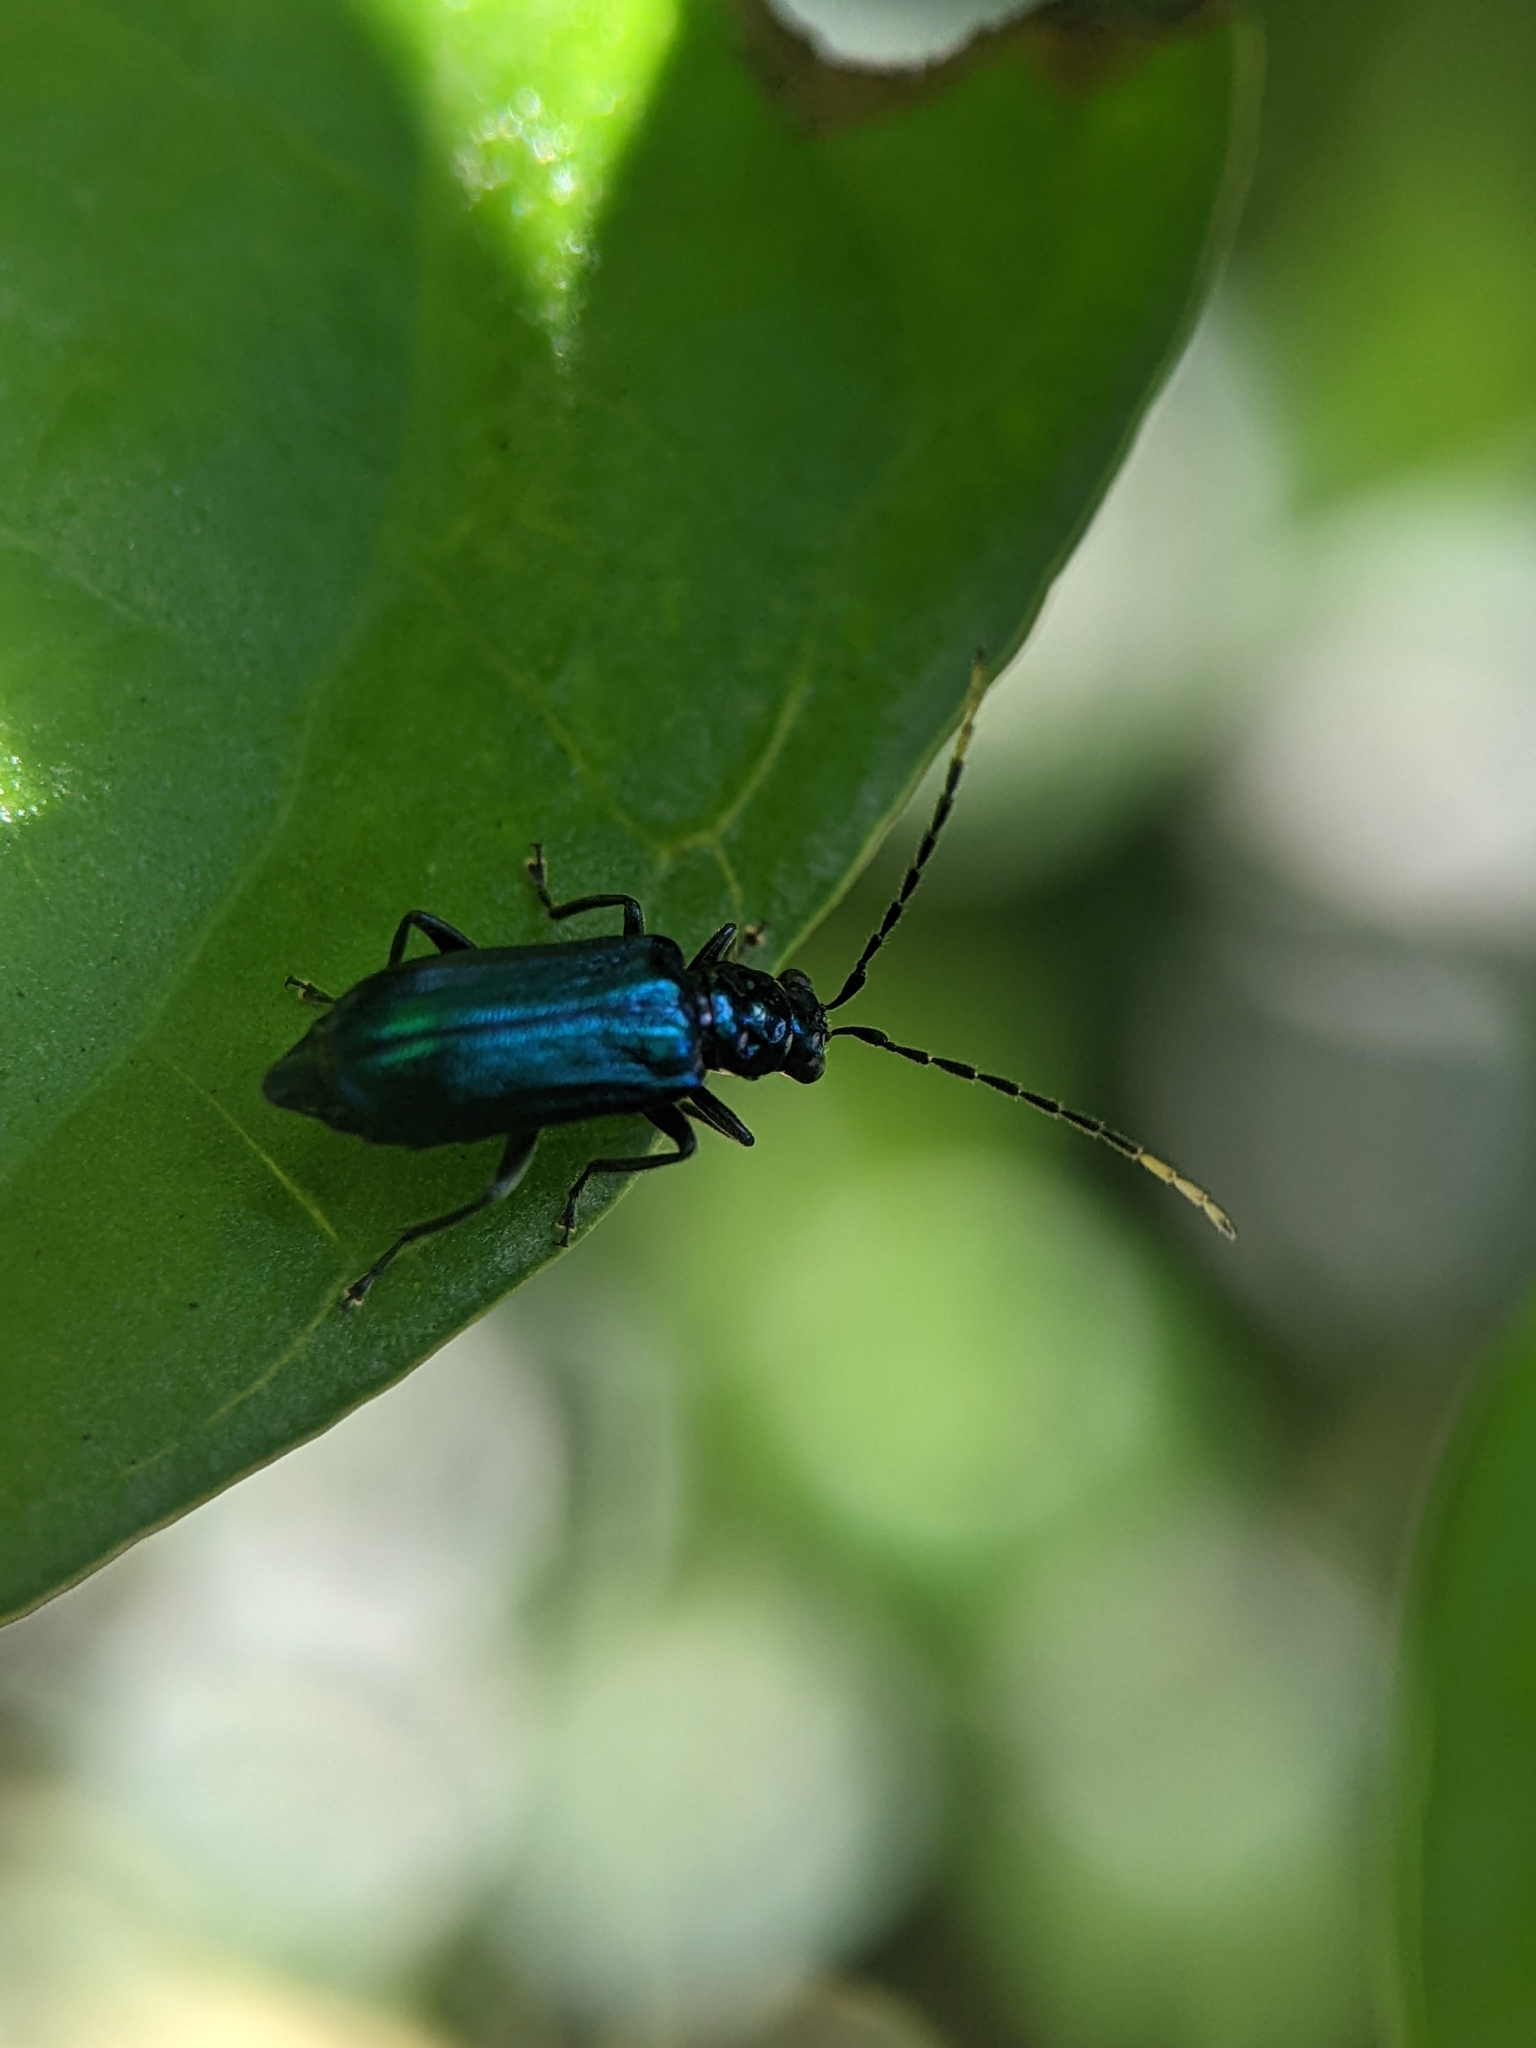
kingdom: Animalia
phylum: Arthropoda
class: Insecta
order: Coleoptera
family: Chrysomelidae
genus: Hoplosaenidea
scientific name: Hoplosaenidea
